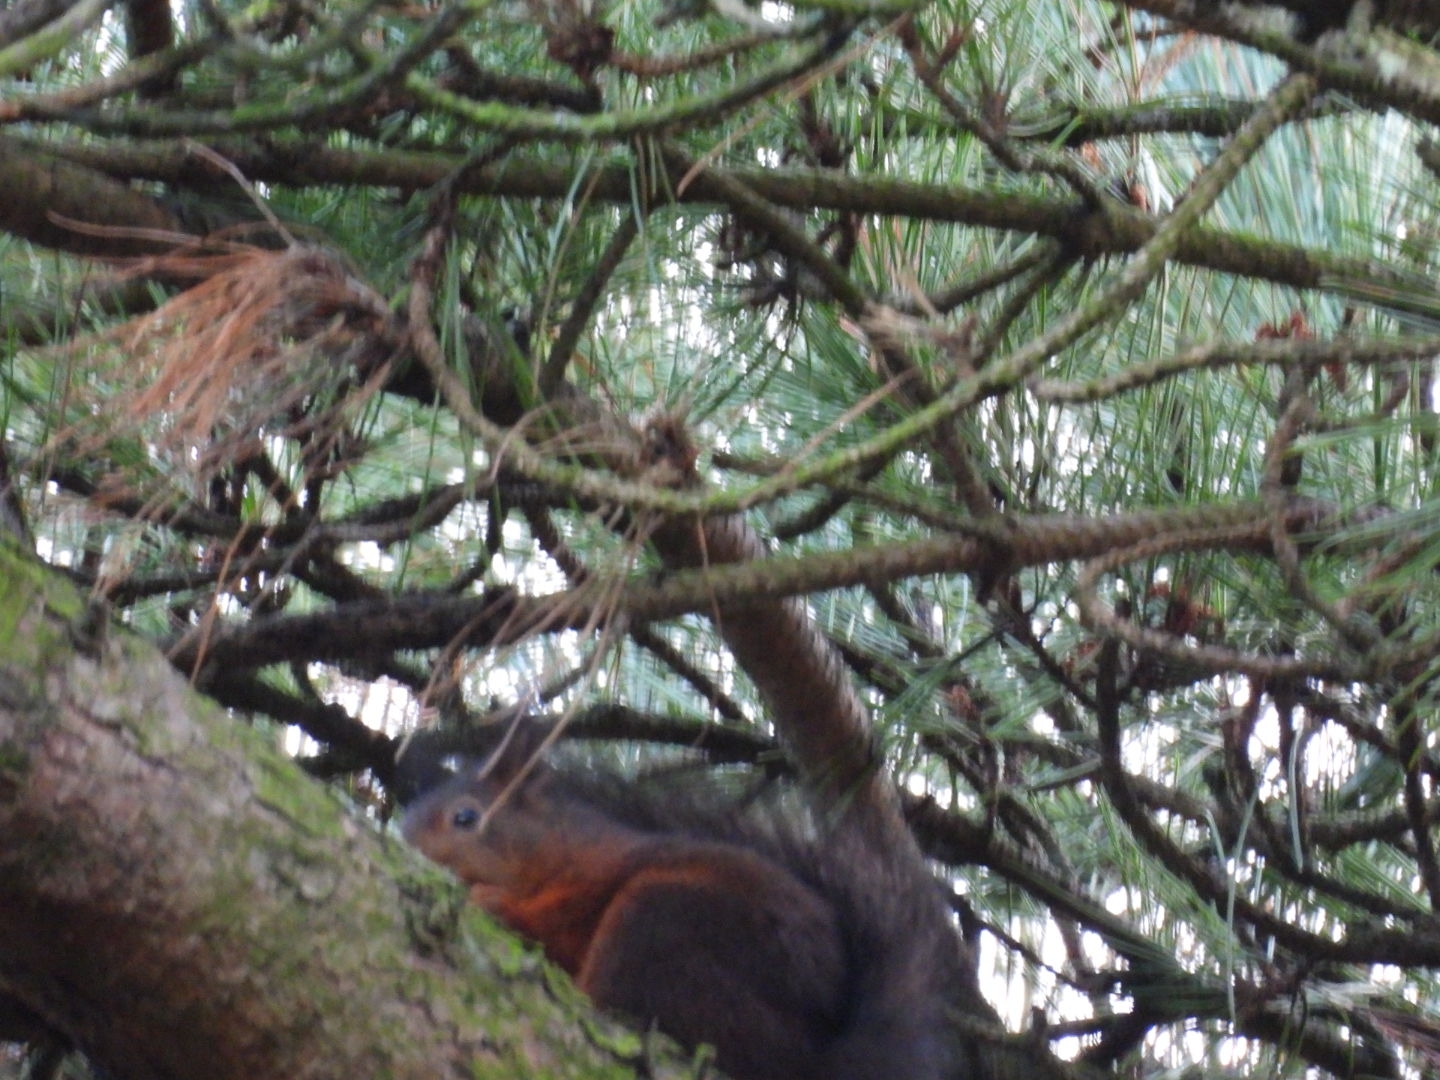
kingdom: Animalia
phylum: Chordata
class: Mammalia
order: Rodentia
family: Sciuridae
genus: Sciurus
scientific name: Sciurus vulgaris
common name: Eurasian red squirrel
